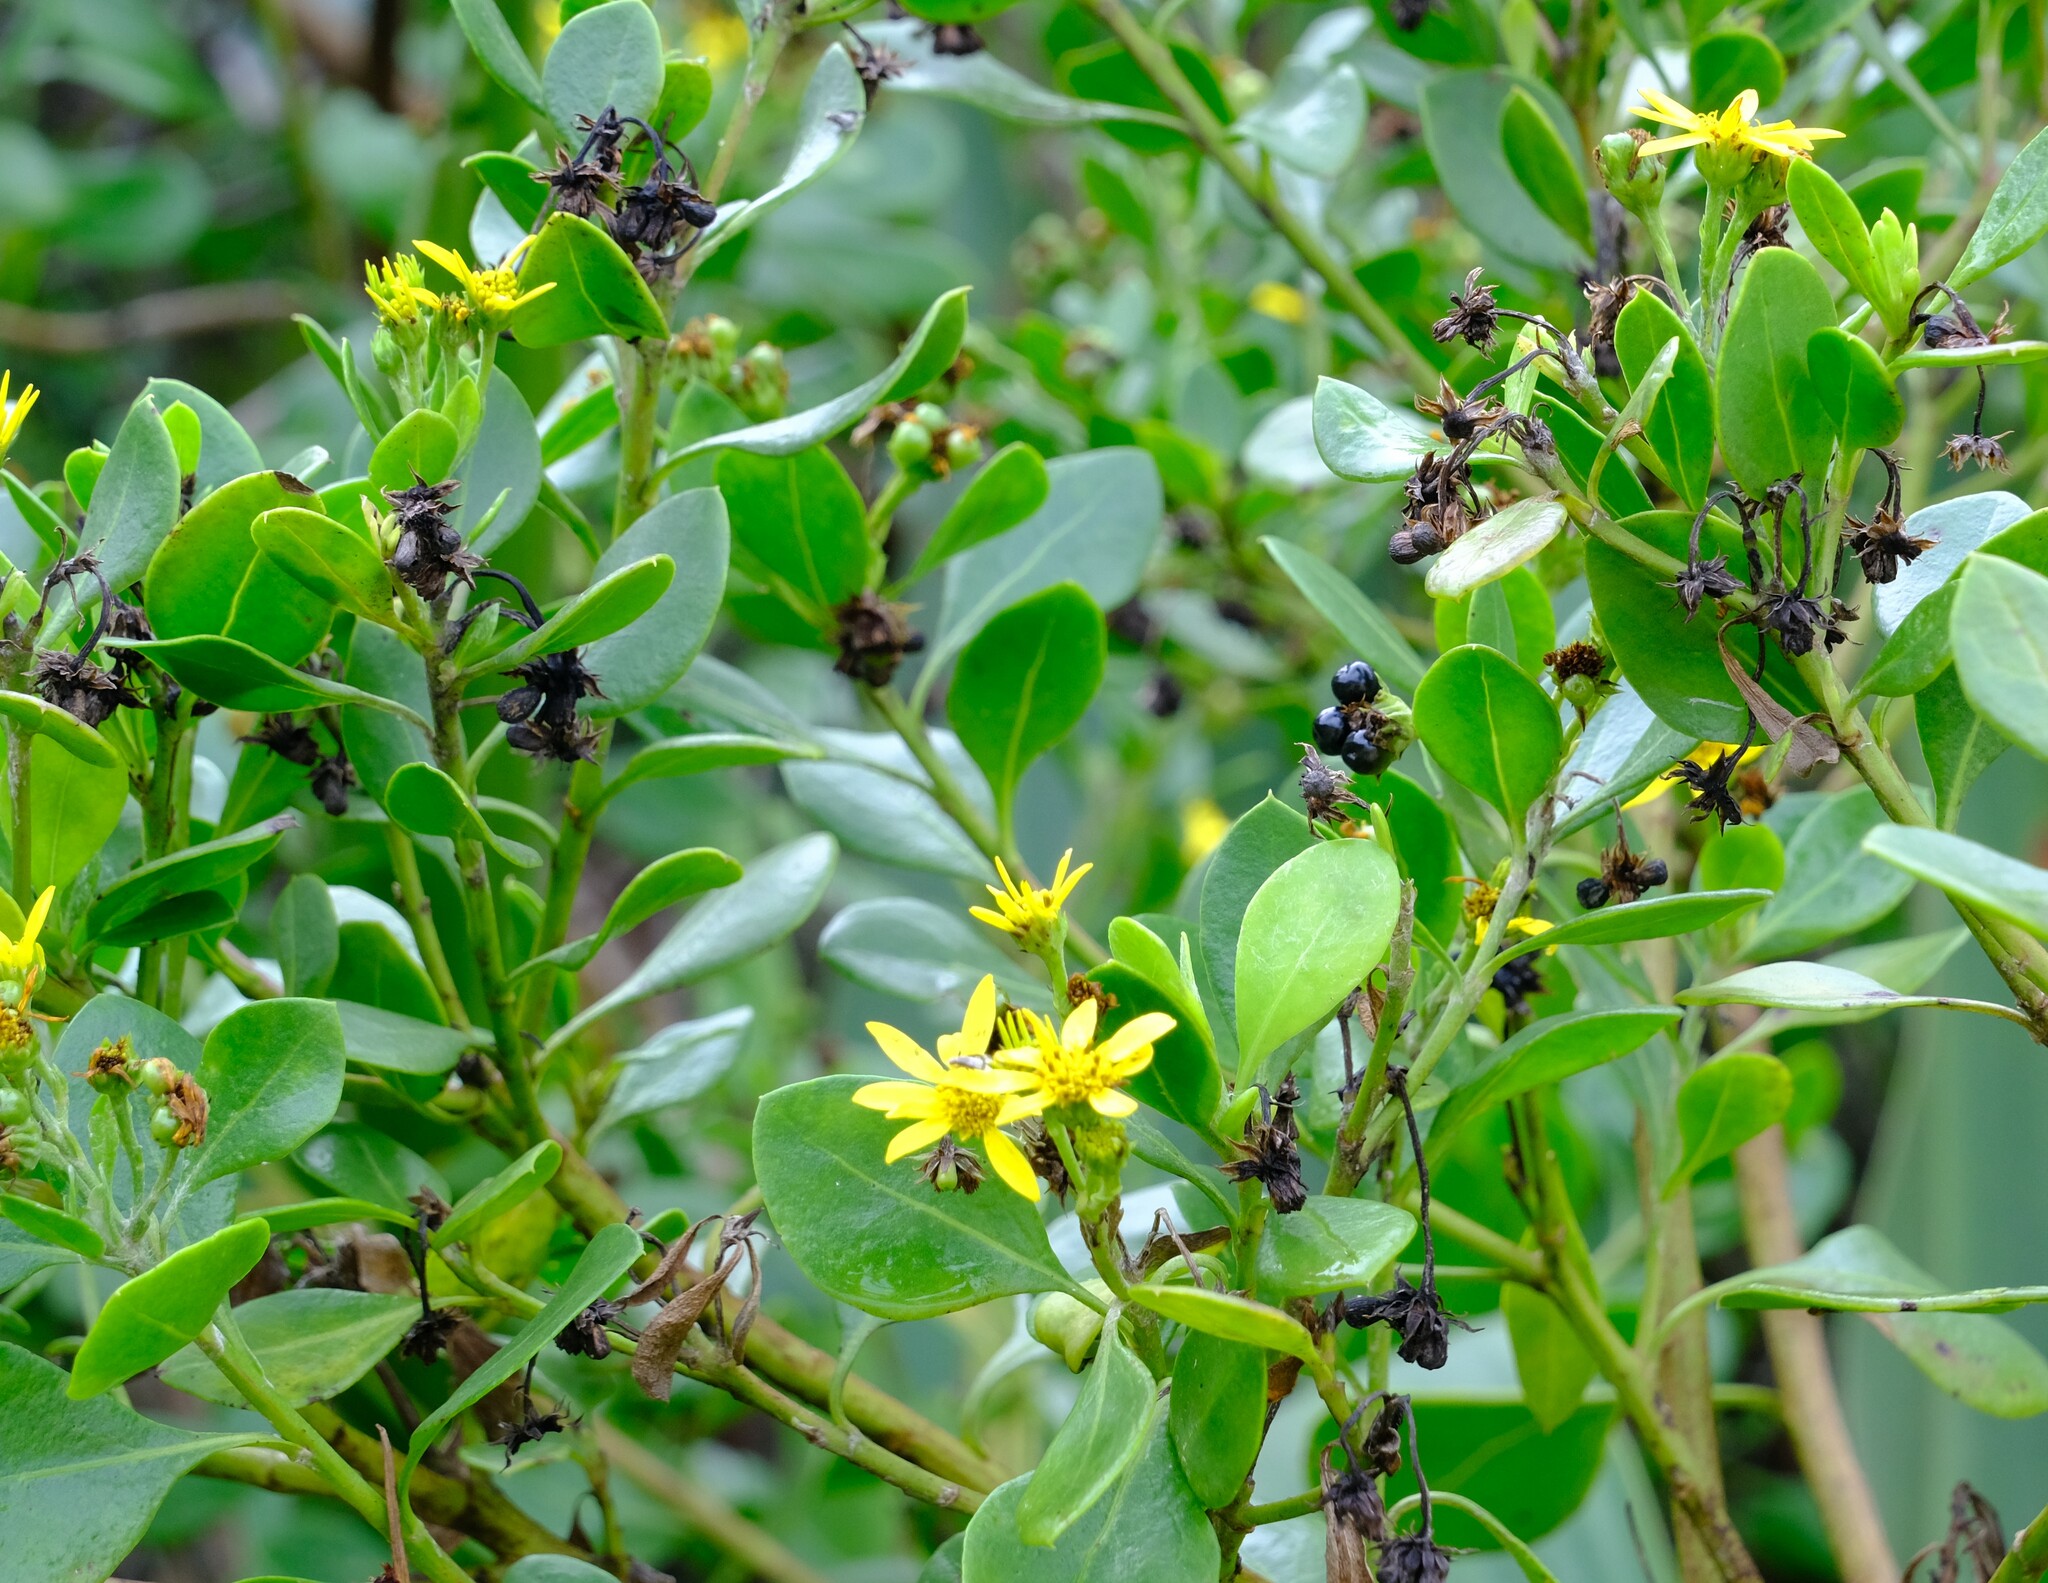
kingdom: Plantae
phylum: Tracheophyta
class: Magnoliopsida
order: Asterales
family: Asteraceae
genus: Osteospermum
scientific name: Osteospermum moniliferum
